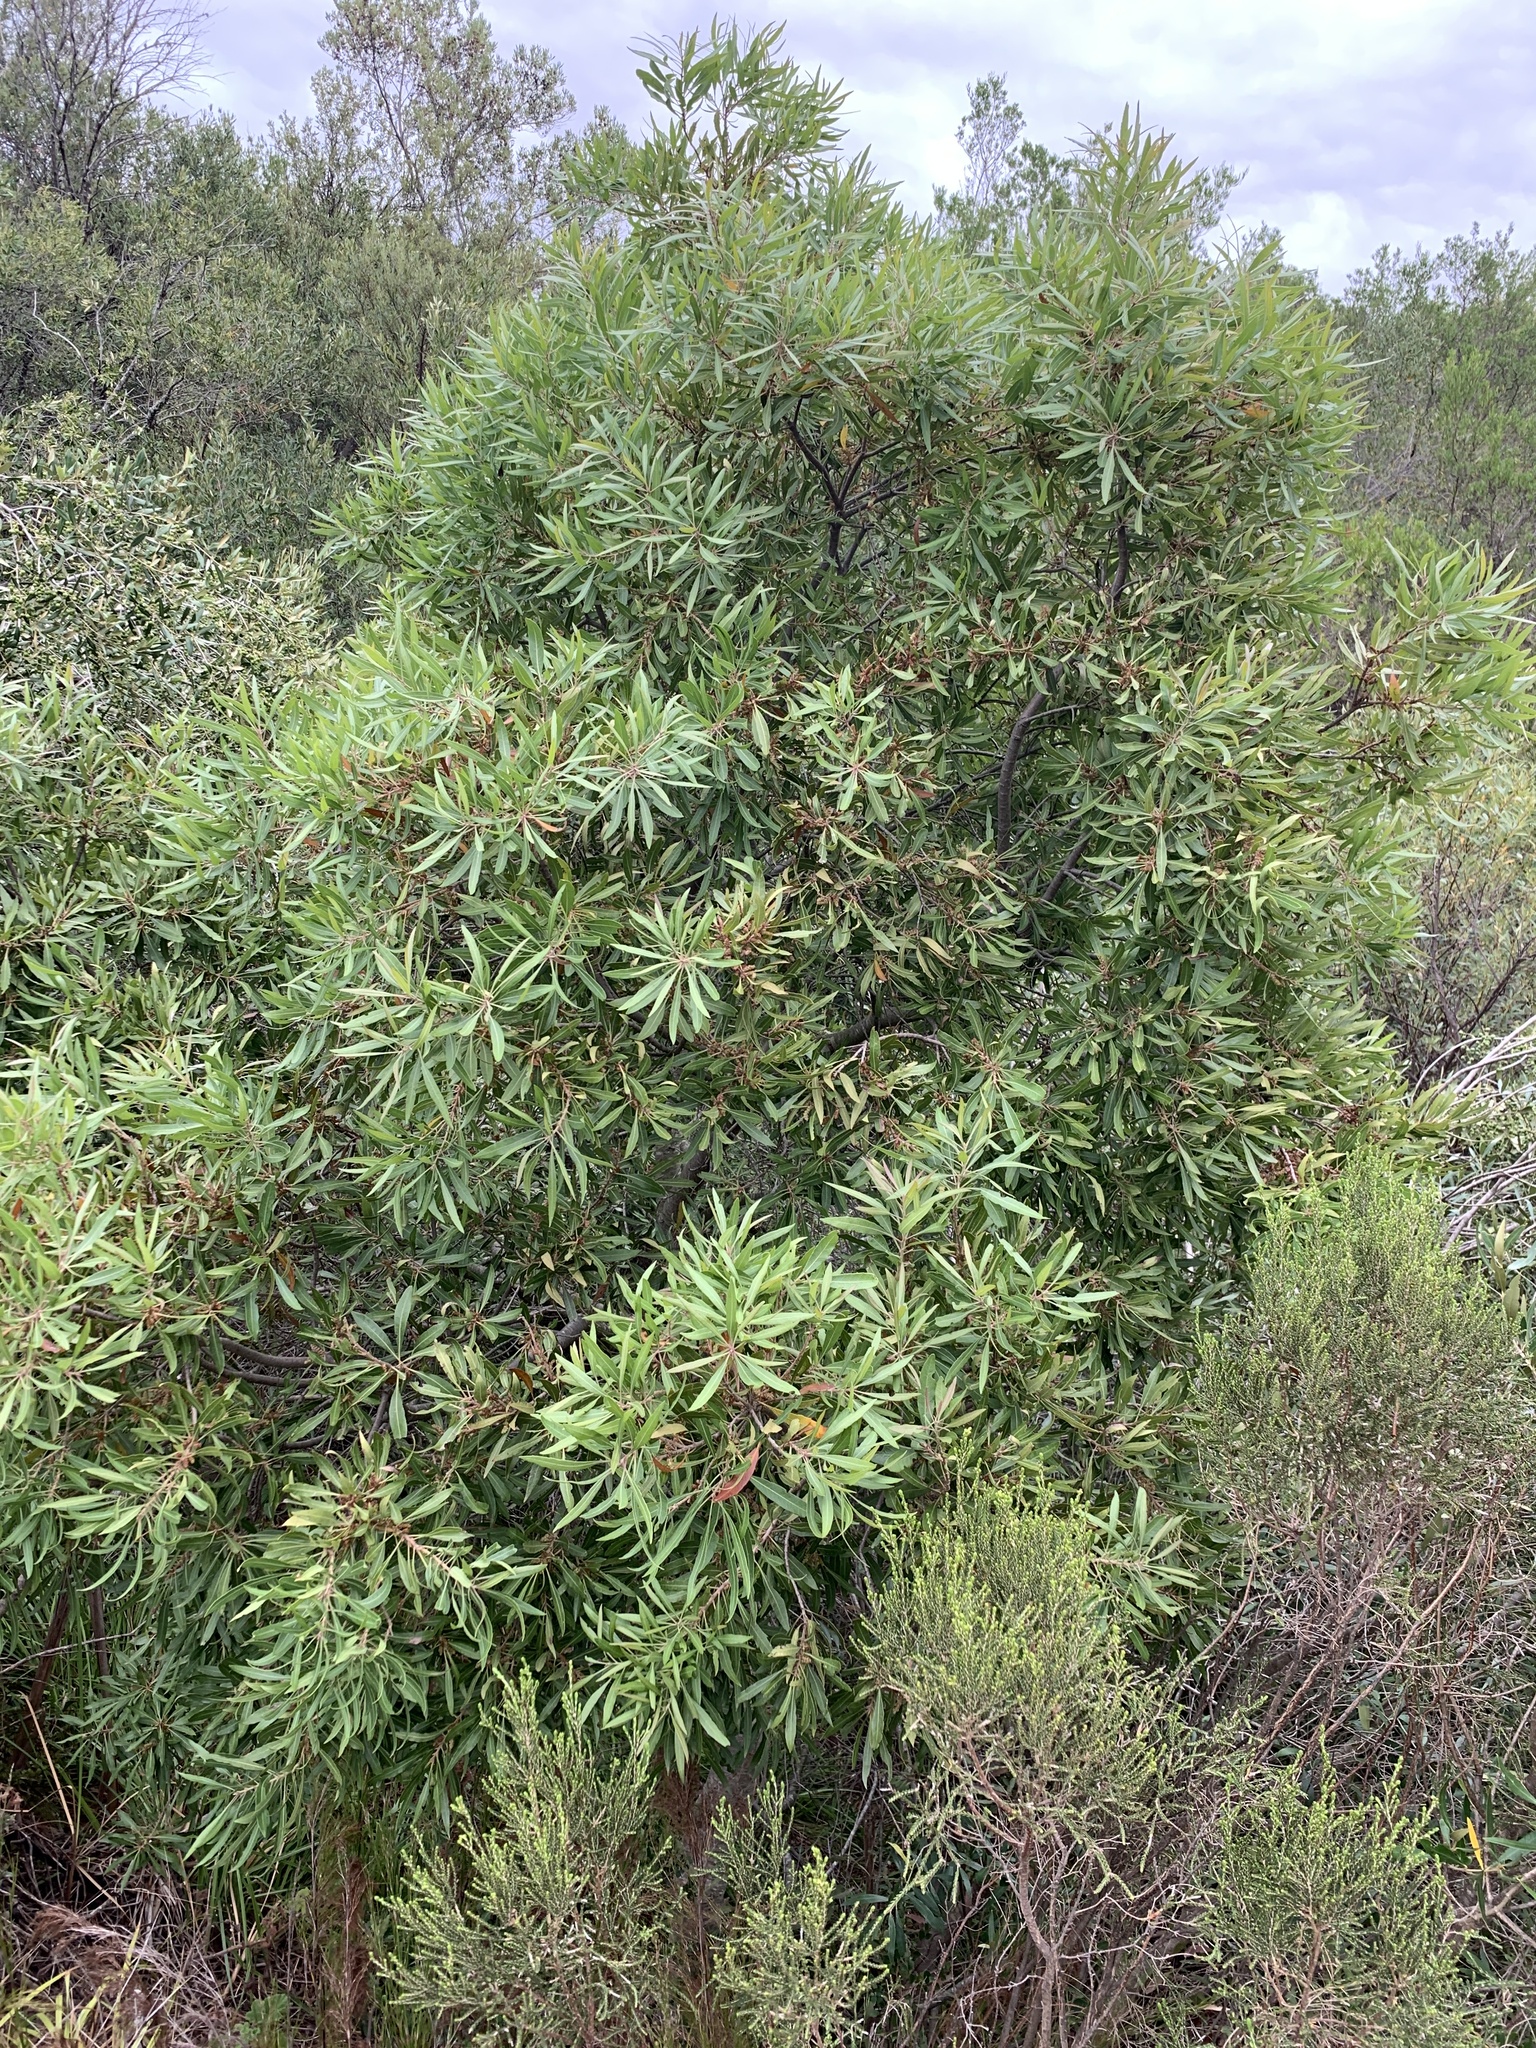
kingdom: Plantae
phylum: Tracheophyta
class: Magnoliopsida
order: Fagales
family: Myricaceae
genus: Morella
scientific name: Morella serrata
